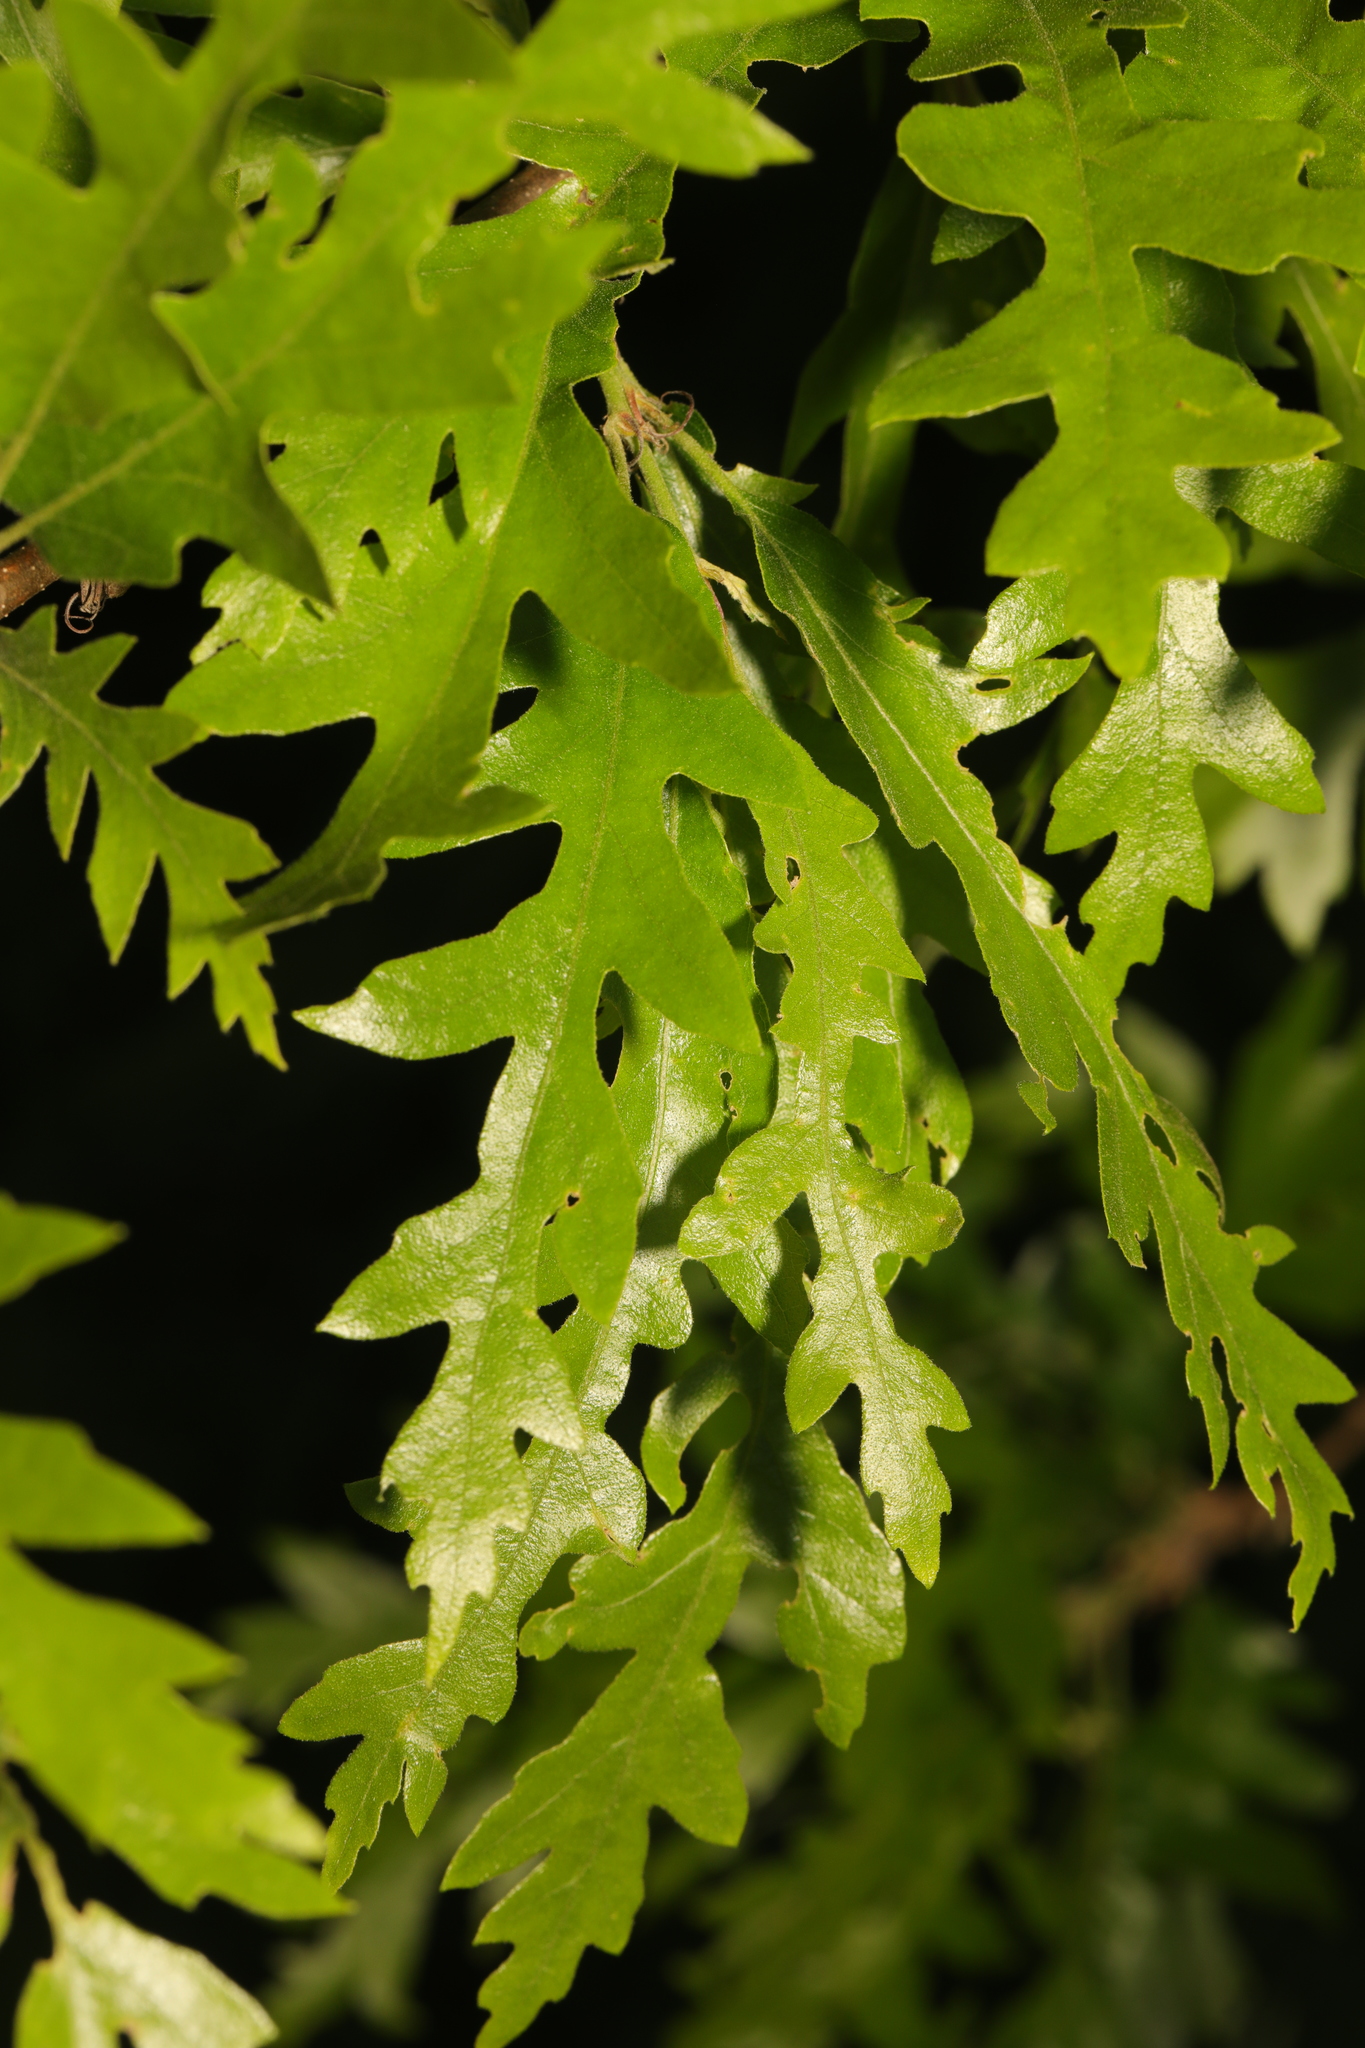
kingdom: Plantae
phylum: Tracheophyta
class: Magnoliopsida
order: Fagales
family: Fagaceae
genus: Quercus
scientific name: Quercus cerris
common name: Turkey oak
